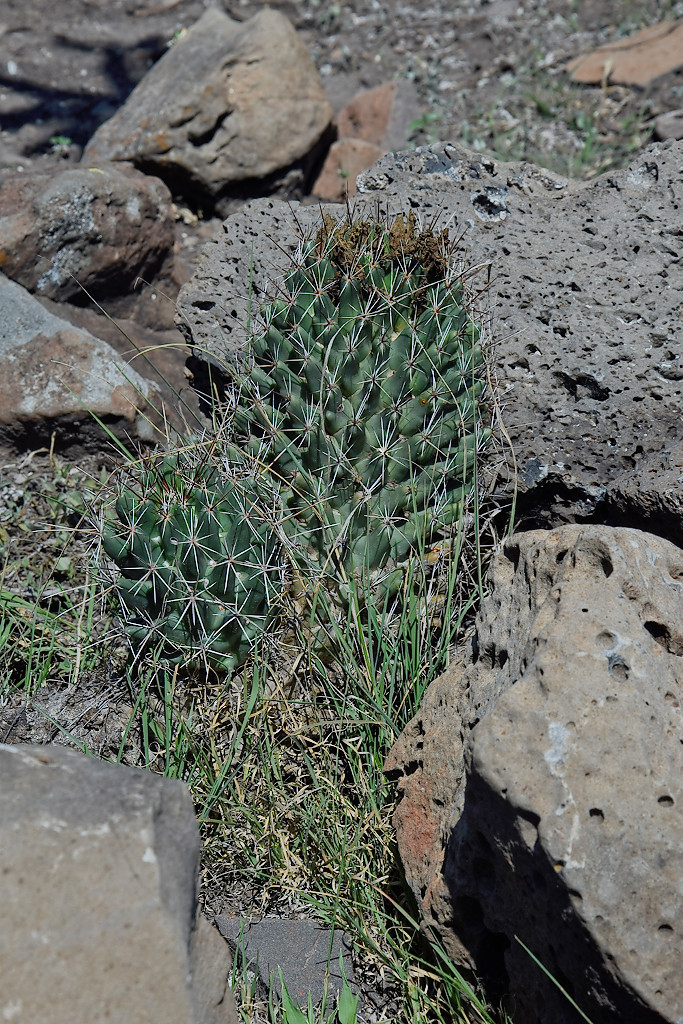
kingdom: Plantae
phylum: Tracheophyta
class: Magnoliopsida
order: Caryophyllales
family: Cactaceae
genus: Coryphantha
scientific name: Coryphantha octacantha
